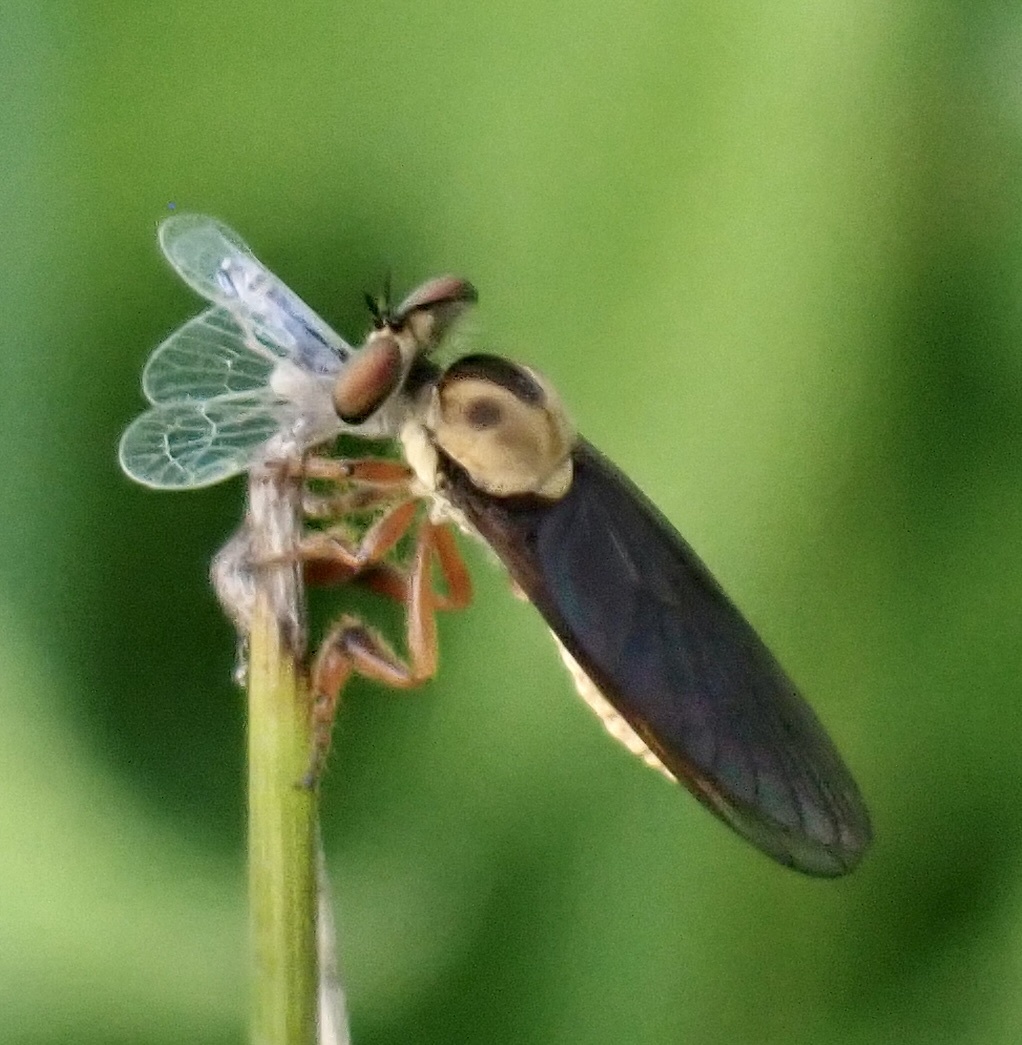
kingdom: Animalia
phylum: Arthropoda
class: Insecta
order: Diptera
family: Asilidae
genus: Holcocephala
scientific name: Holcocephala
